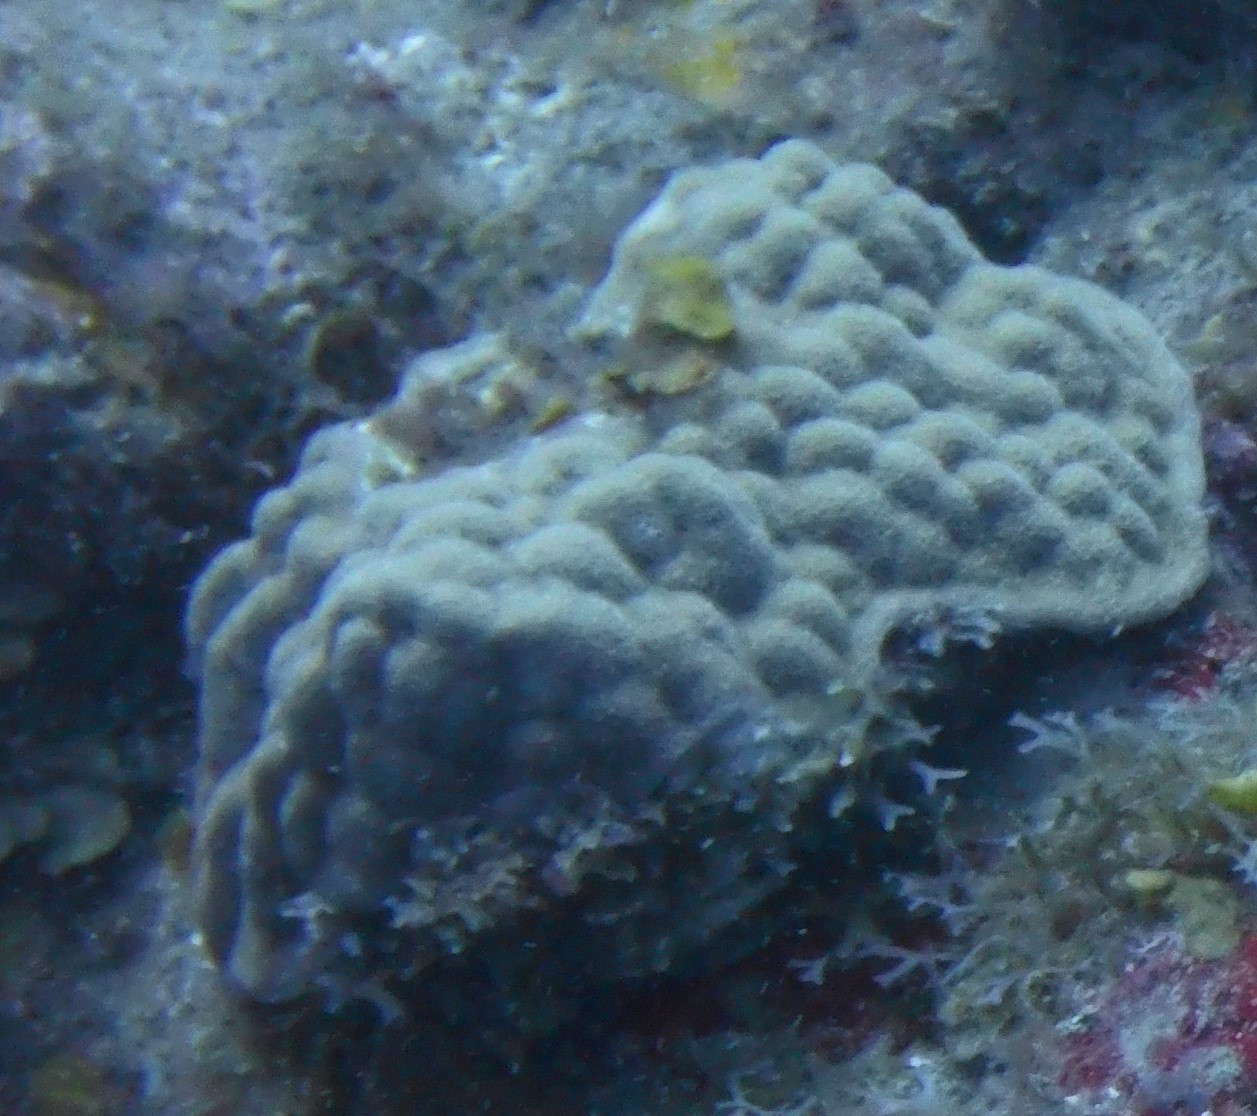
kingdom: Animalia
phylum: Cnidaria
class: Anthozoa
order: Scleractinia
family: Poritidae
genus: Porites
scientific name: Porites astreoides
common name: Mustard hill coral
